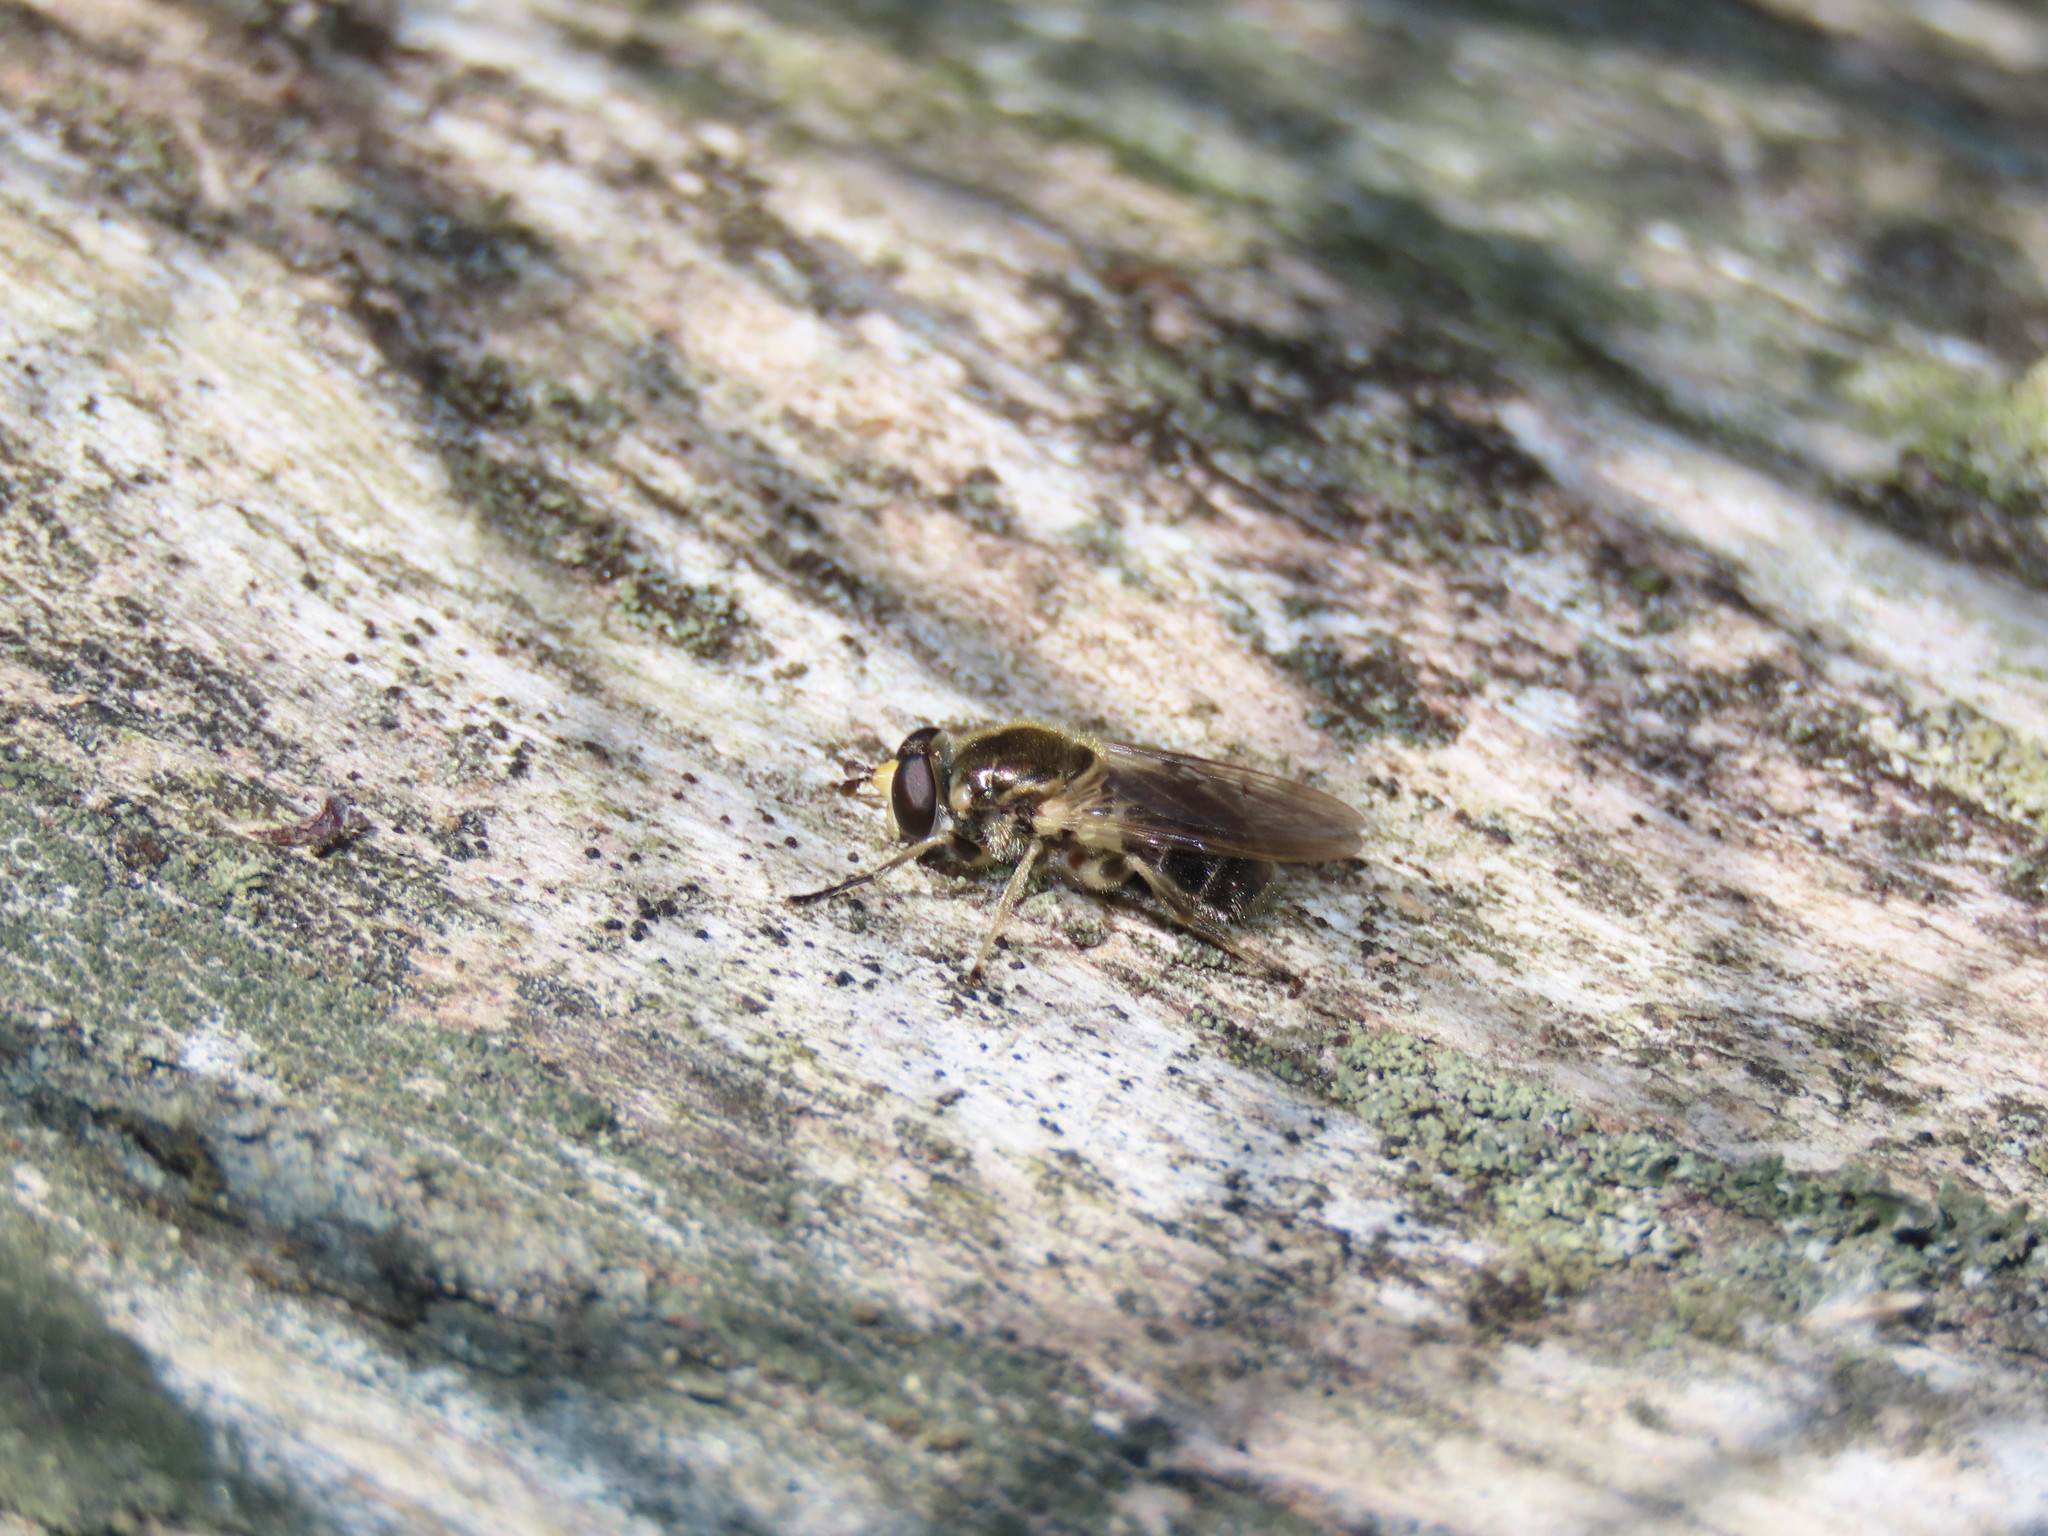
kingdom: Animalia
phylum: Arthropoda
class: Insecta
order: Diptera
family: Syrphidae
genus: Blera
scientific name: Blera pictipes
